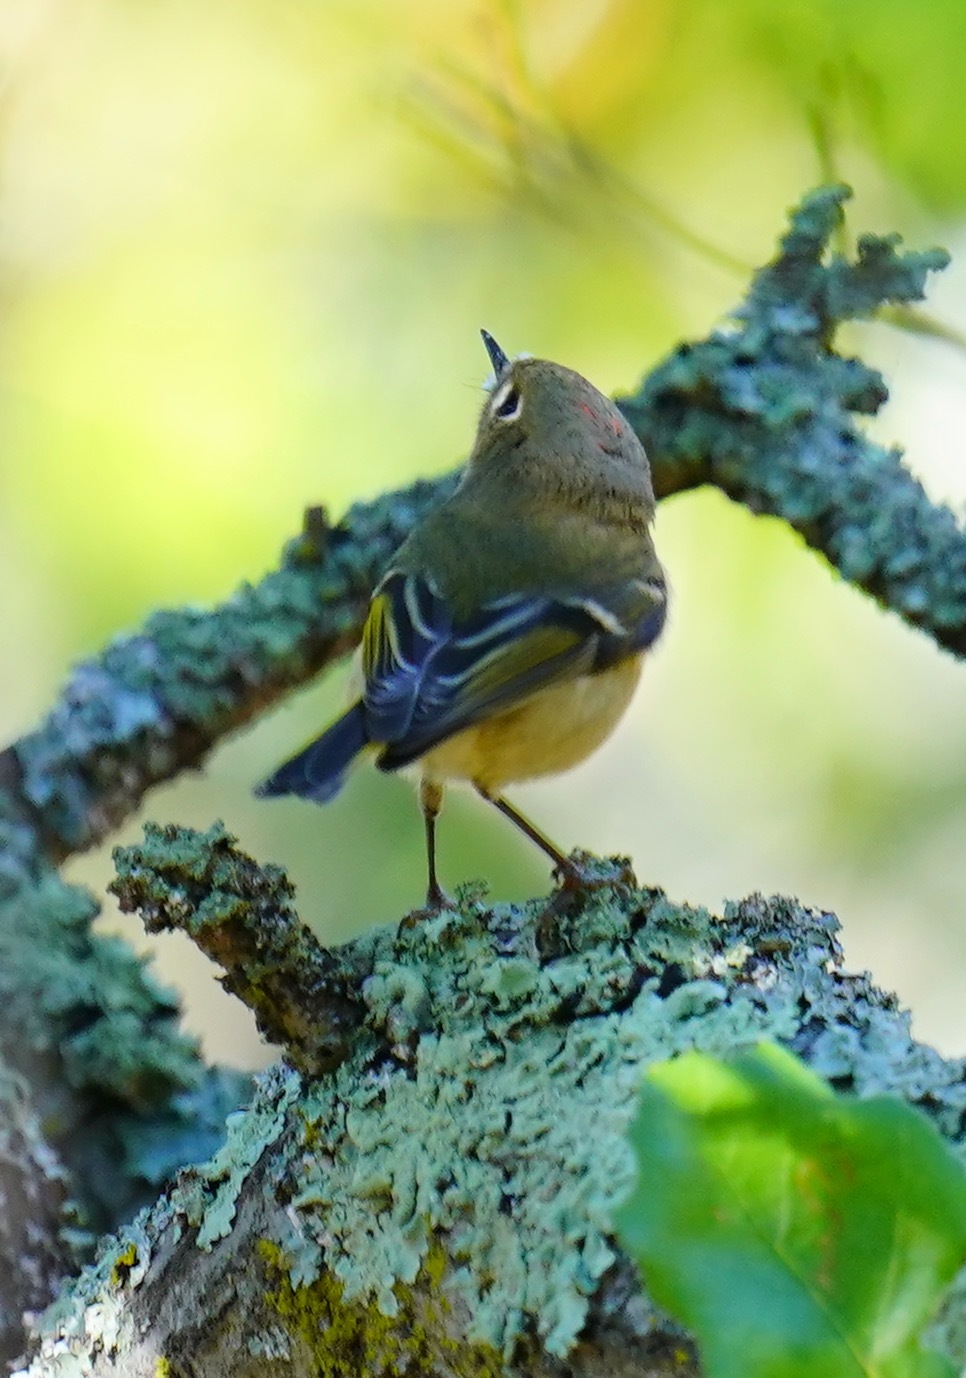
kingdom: Animalia
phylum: Chordata
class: Aves
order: Passeriformes
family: Regulidae
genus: Regulus
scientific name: Regulus calendula
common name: Ruby-crowned kinglet
